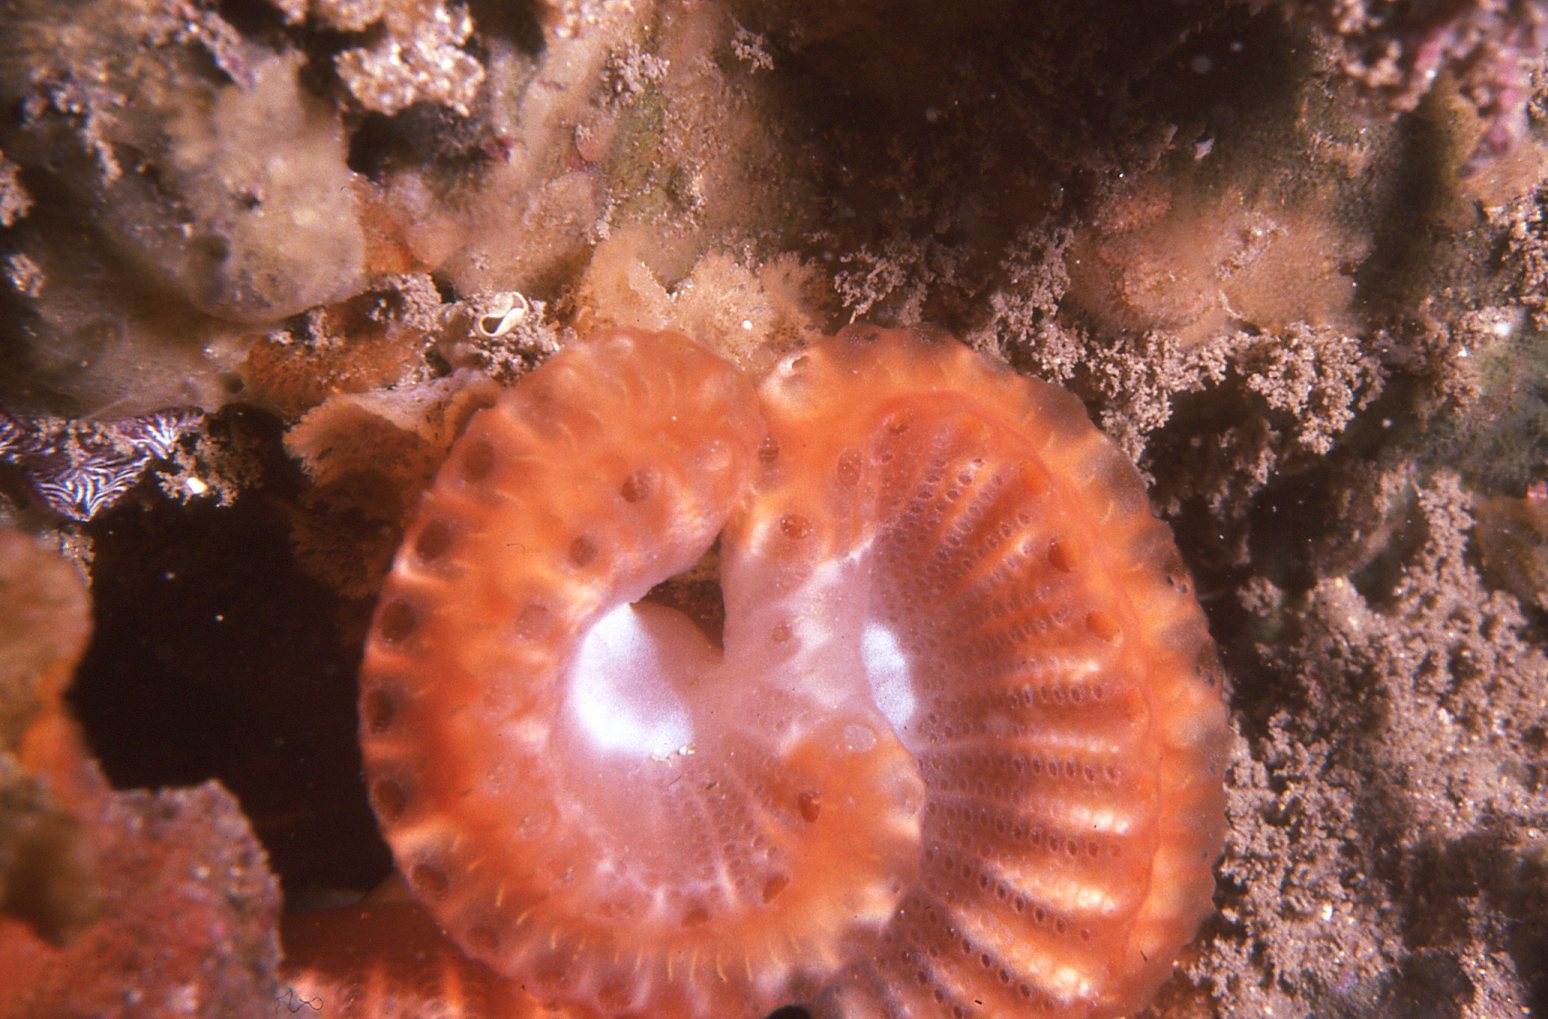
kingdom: Animalia
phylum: Chordata
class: Ascidiacea
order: Aplousobranchia
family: Holozoidae
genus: Sycozoa
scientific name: Sycozoa cerebriformis
